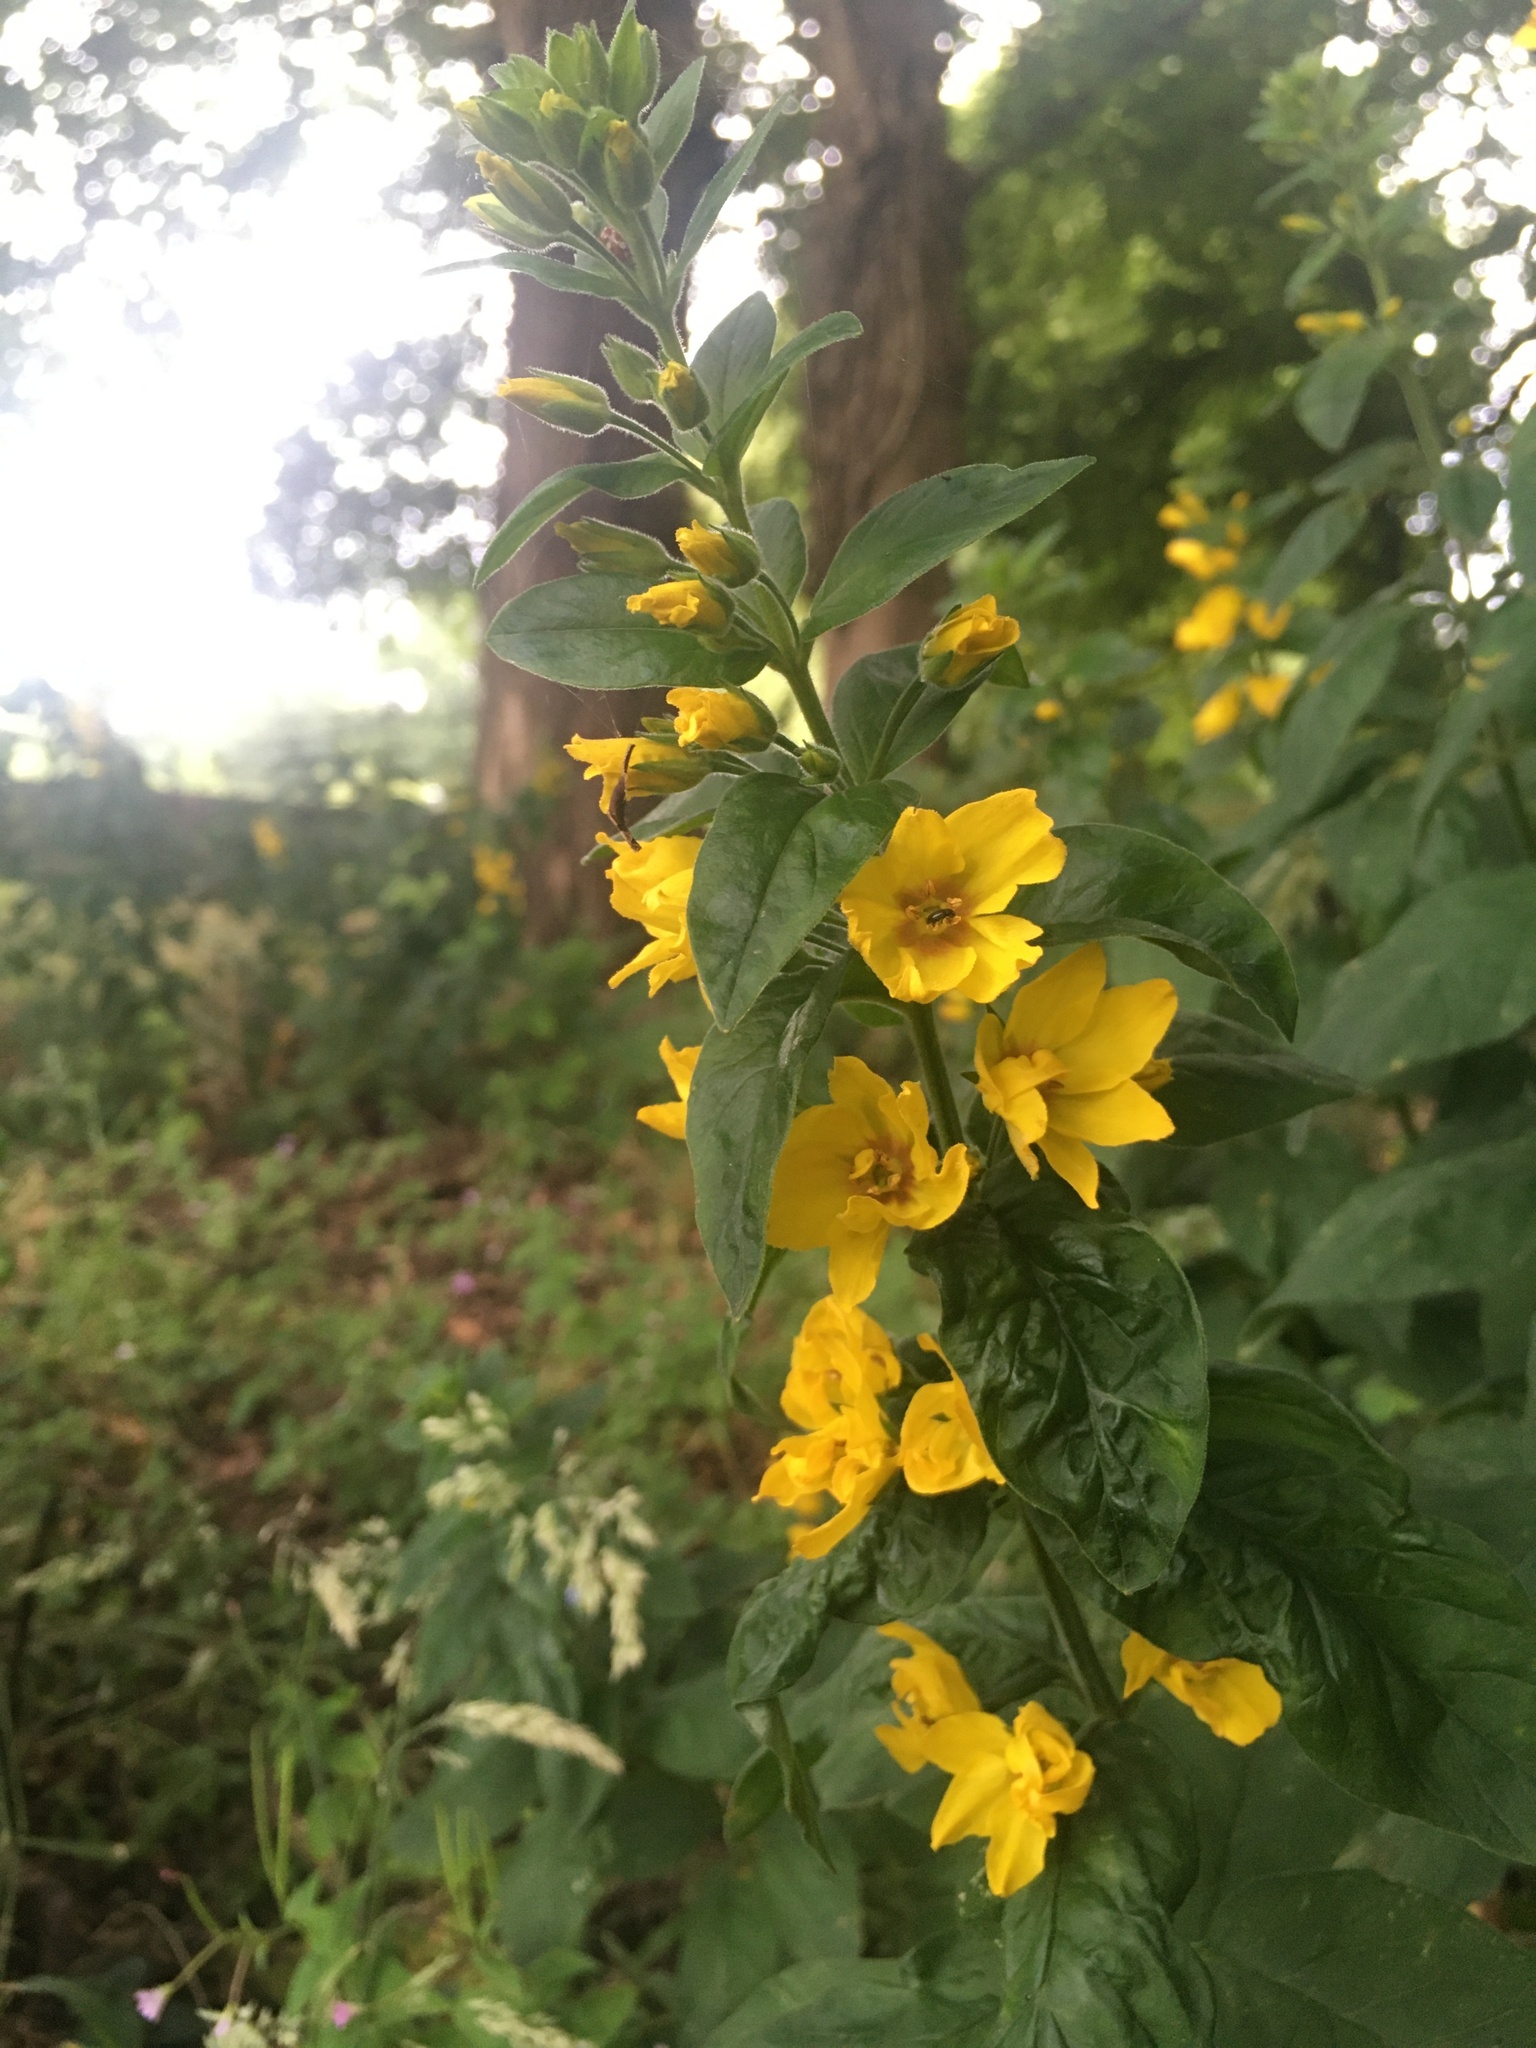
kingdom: Plantae
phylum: Tracheophyta
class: Magnoliopsida
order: Ericales
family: Primulaceae
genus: Lysimachia
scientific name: Lysimachia punctata
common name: Dotted loosestrife
